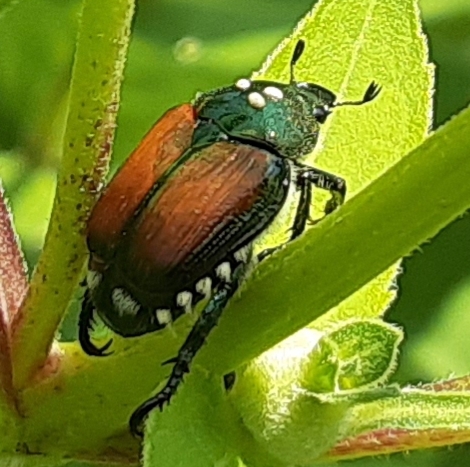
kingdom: Animalia
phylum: Arthropoda
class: Insecta
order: Diptera
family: Tachinidae
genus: Istocheta
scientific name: Istocheta aldrichi
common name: Parasitic wasp
